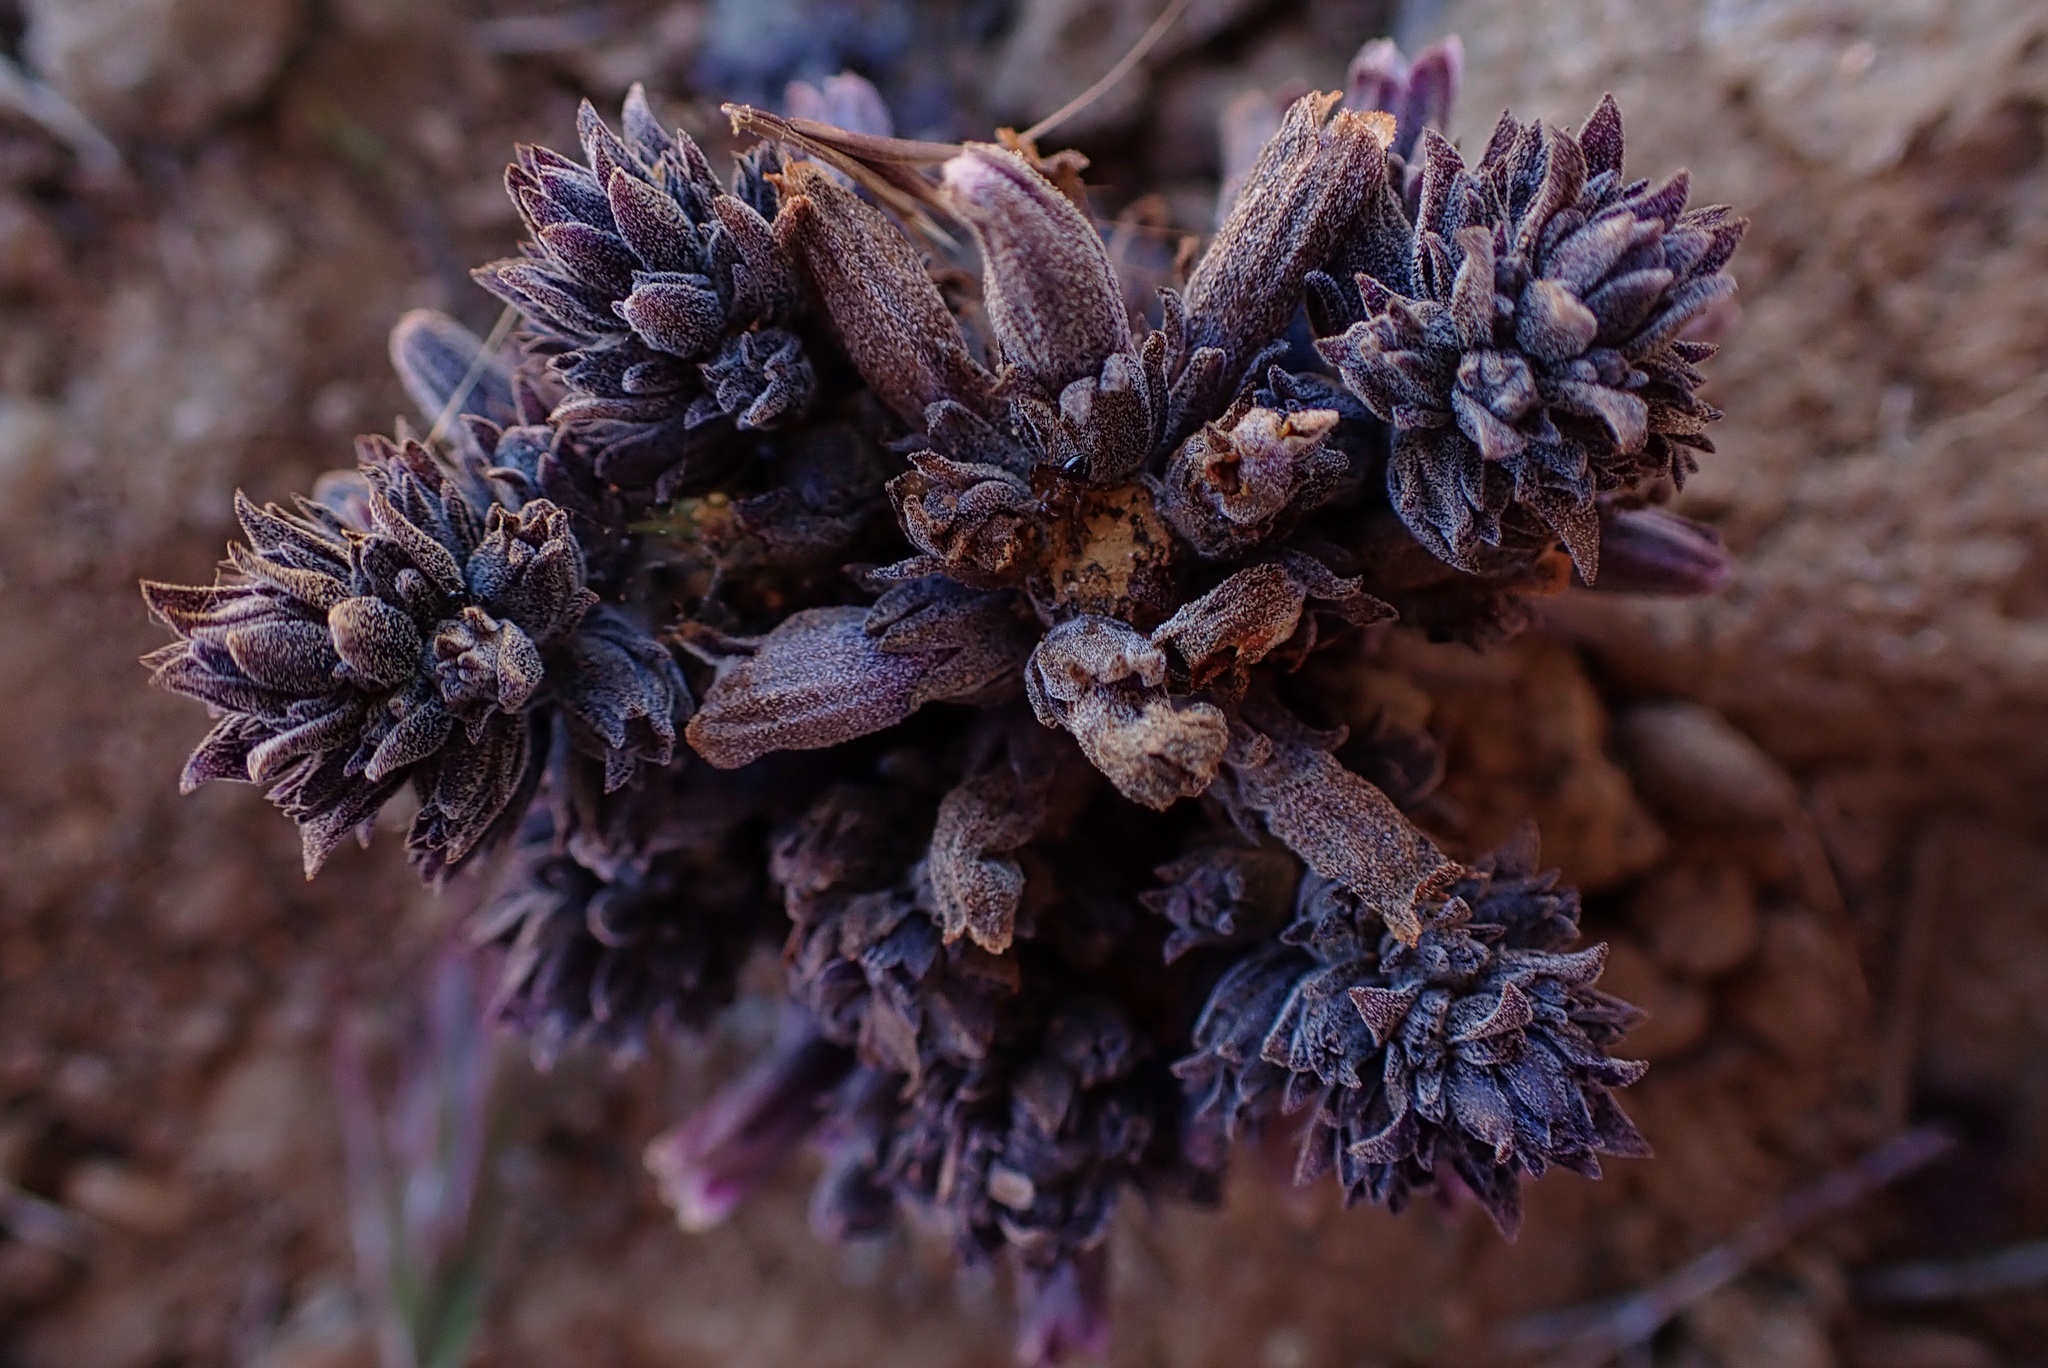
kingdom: Plantae
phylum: Tracheophyta
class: Magnoliopsida
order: Lamiales
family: Orobanchaceae
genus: Aphyllon
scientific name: Aphyllon tuberosum
